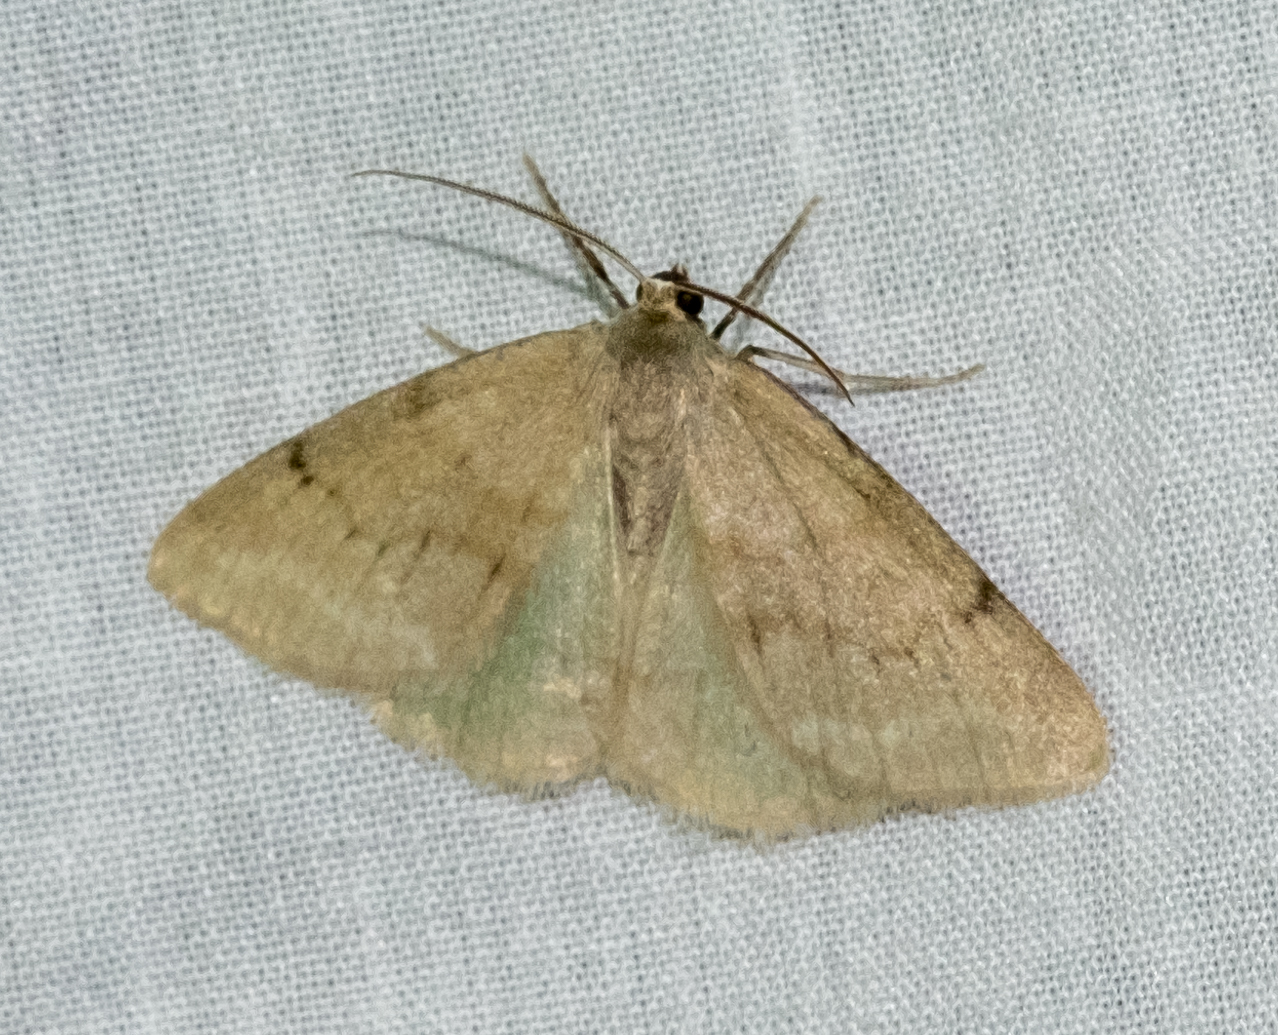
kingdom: Animalia
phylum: Arthropoda
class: Insecta
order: Lepidoptera
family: Geometridae
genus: Pseudoterpna
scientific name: Pseudoterpna pruinata
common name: Grass emerald
